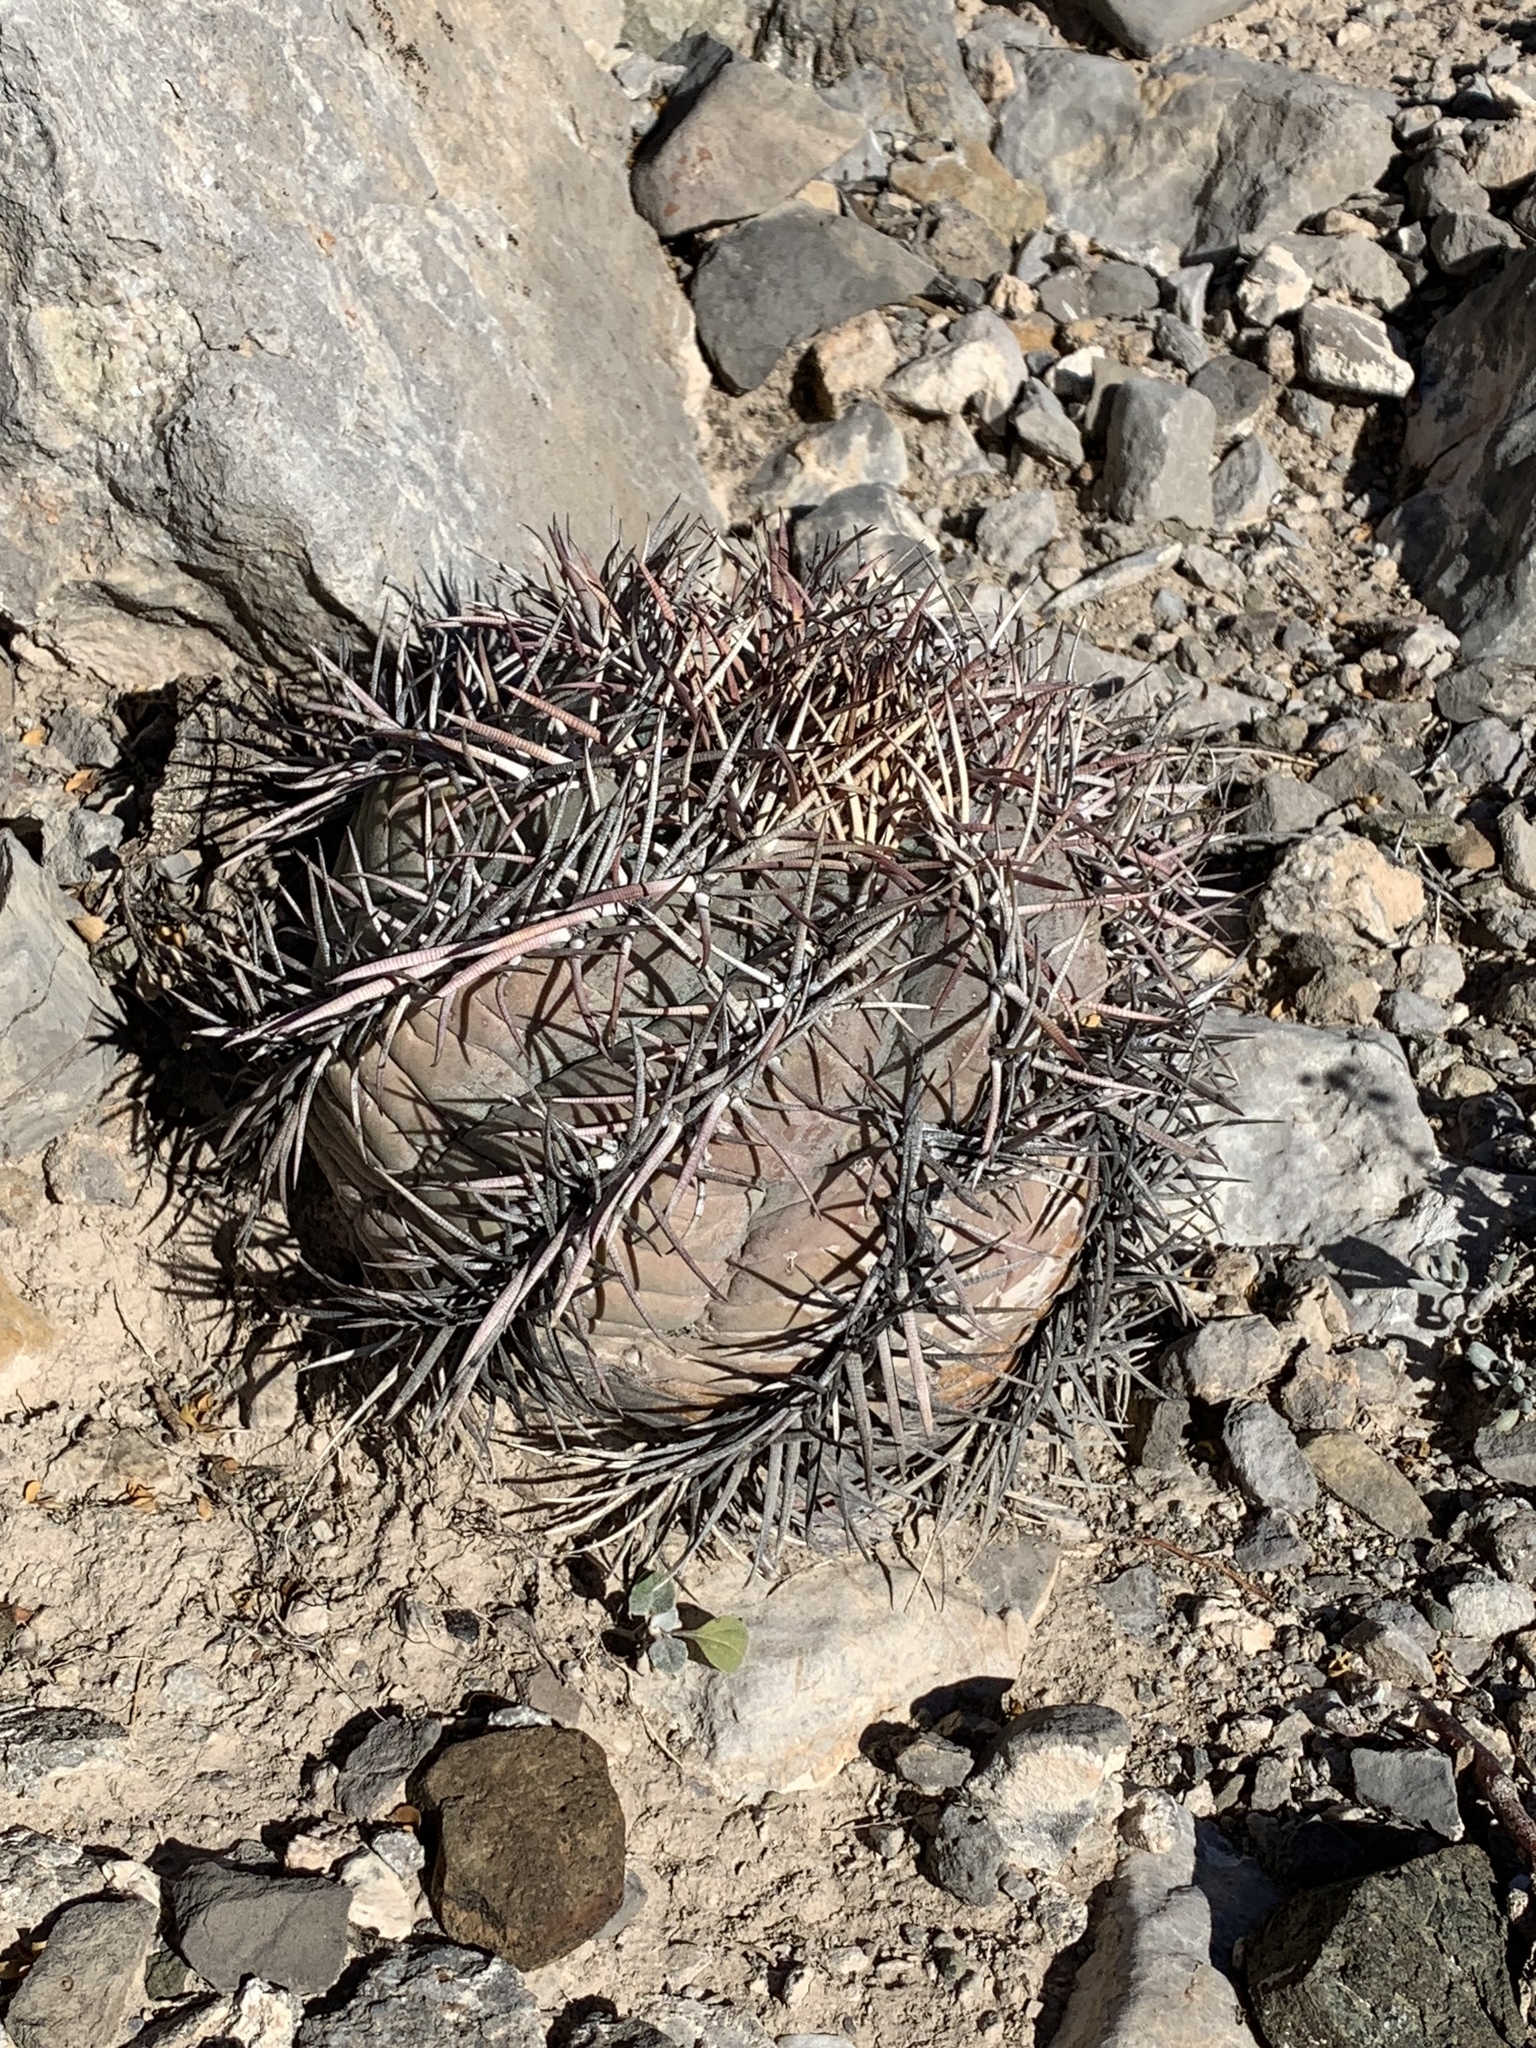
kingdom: Plantae
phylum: Tracheophyta
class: Magnoliopsida
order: Caryophyllales
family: Cactaceae
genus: Echinocactus
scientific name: Echinocactus horizonthalonius
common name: Devilshead
